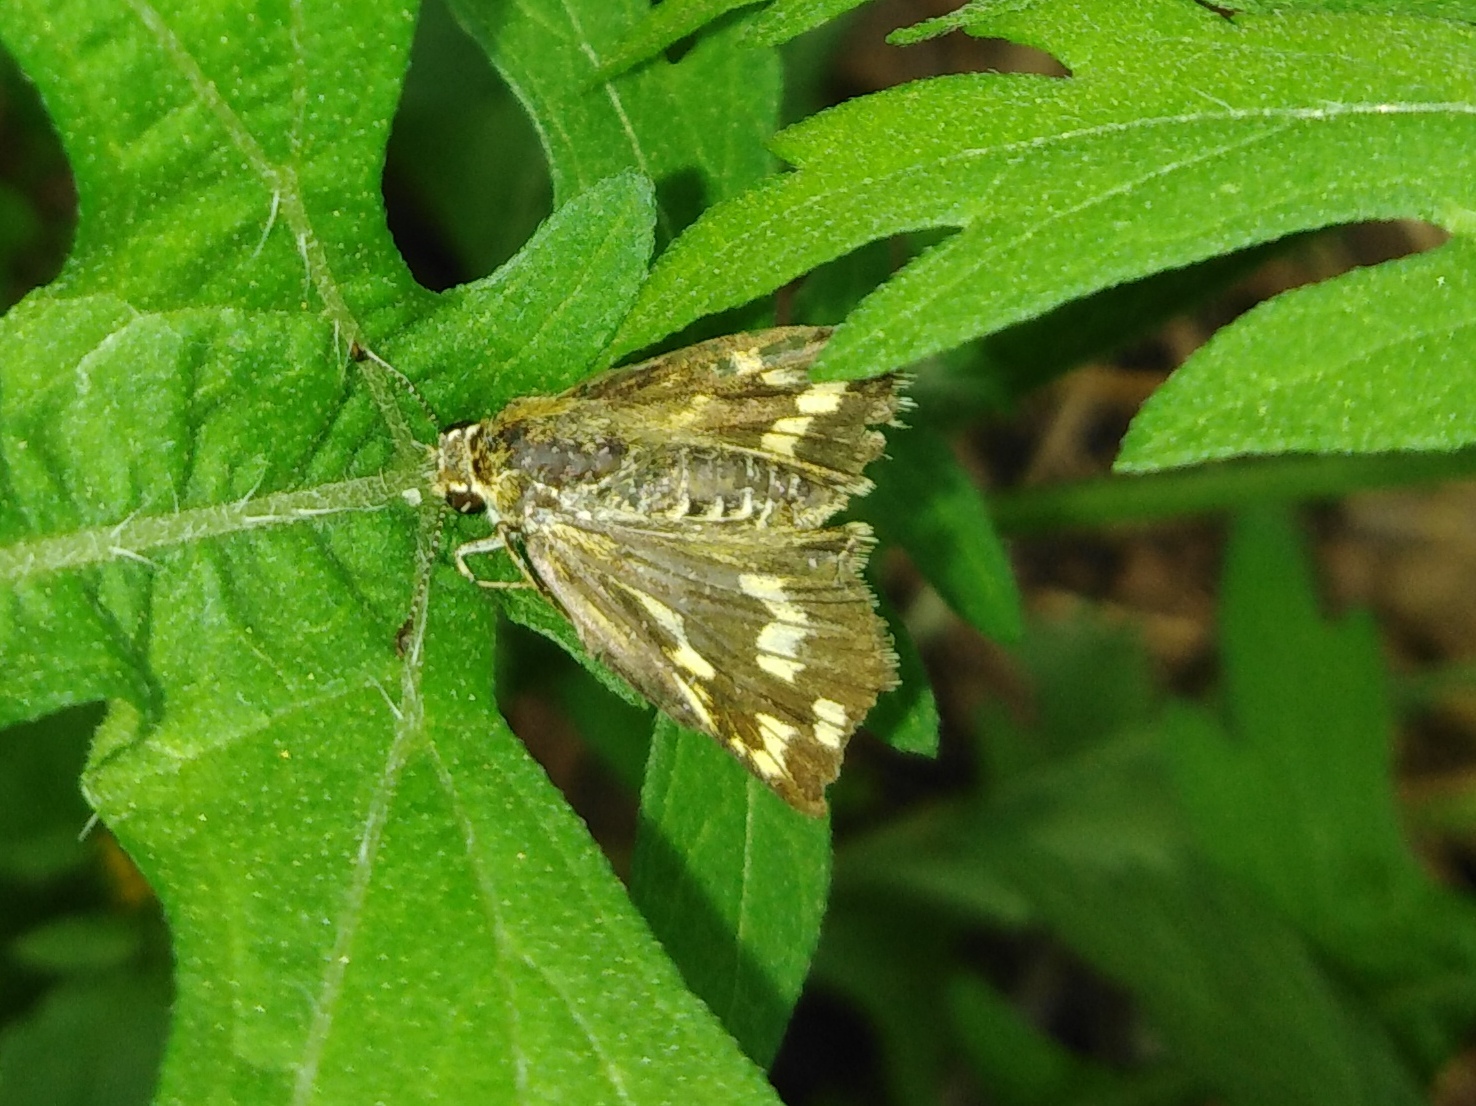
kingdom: Animalia
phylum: Arthropoda
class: Insecta
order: Lepidoptera
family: Hesperiidae
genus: Potanthus
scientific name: Potanthus pallida
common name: Pallid dart
